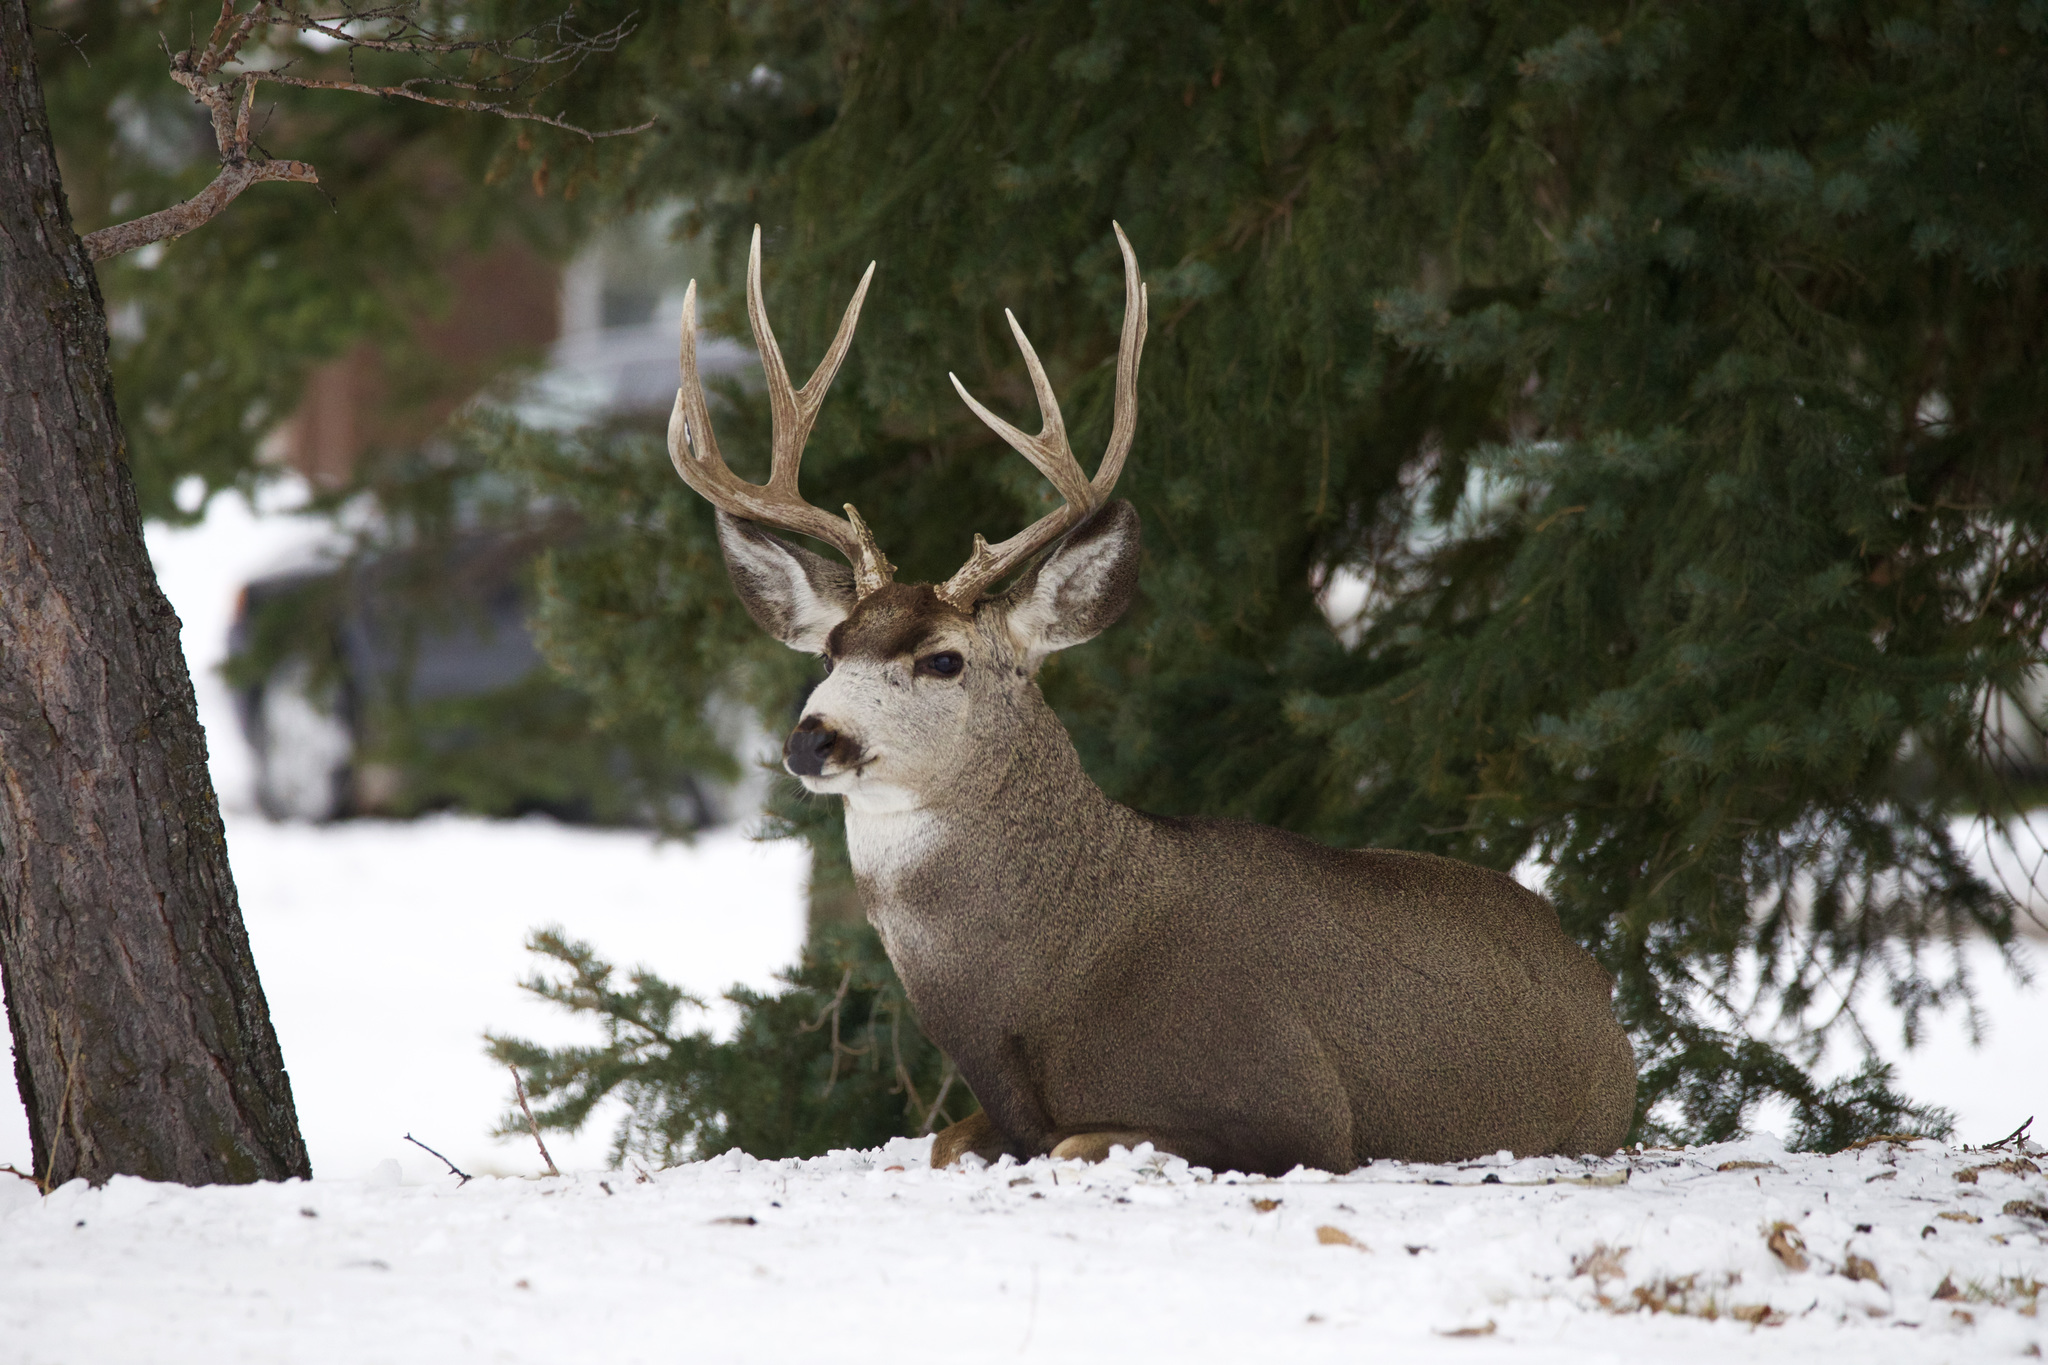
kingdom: Animalia
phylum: Chordata
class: Mammalia
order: Artiodactyla
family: Cervidae
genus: Odocoileus
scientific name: Odocoileus hemionus
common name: Mule deer
